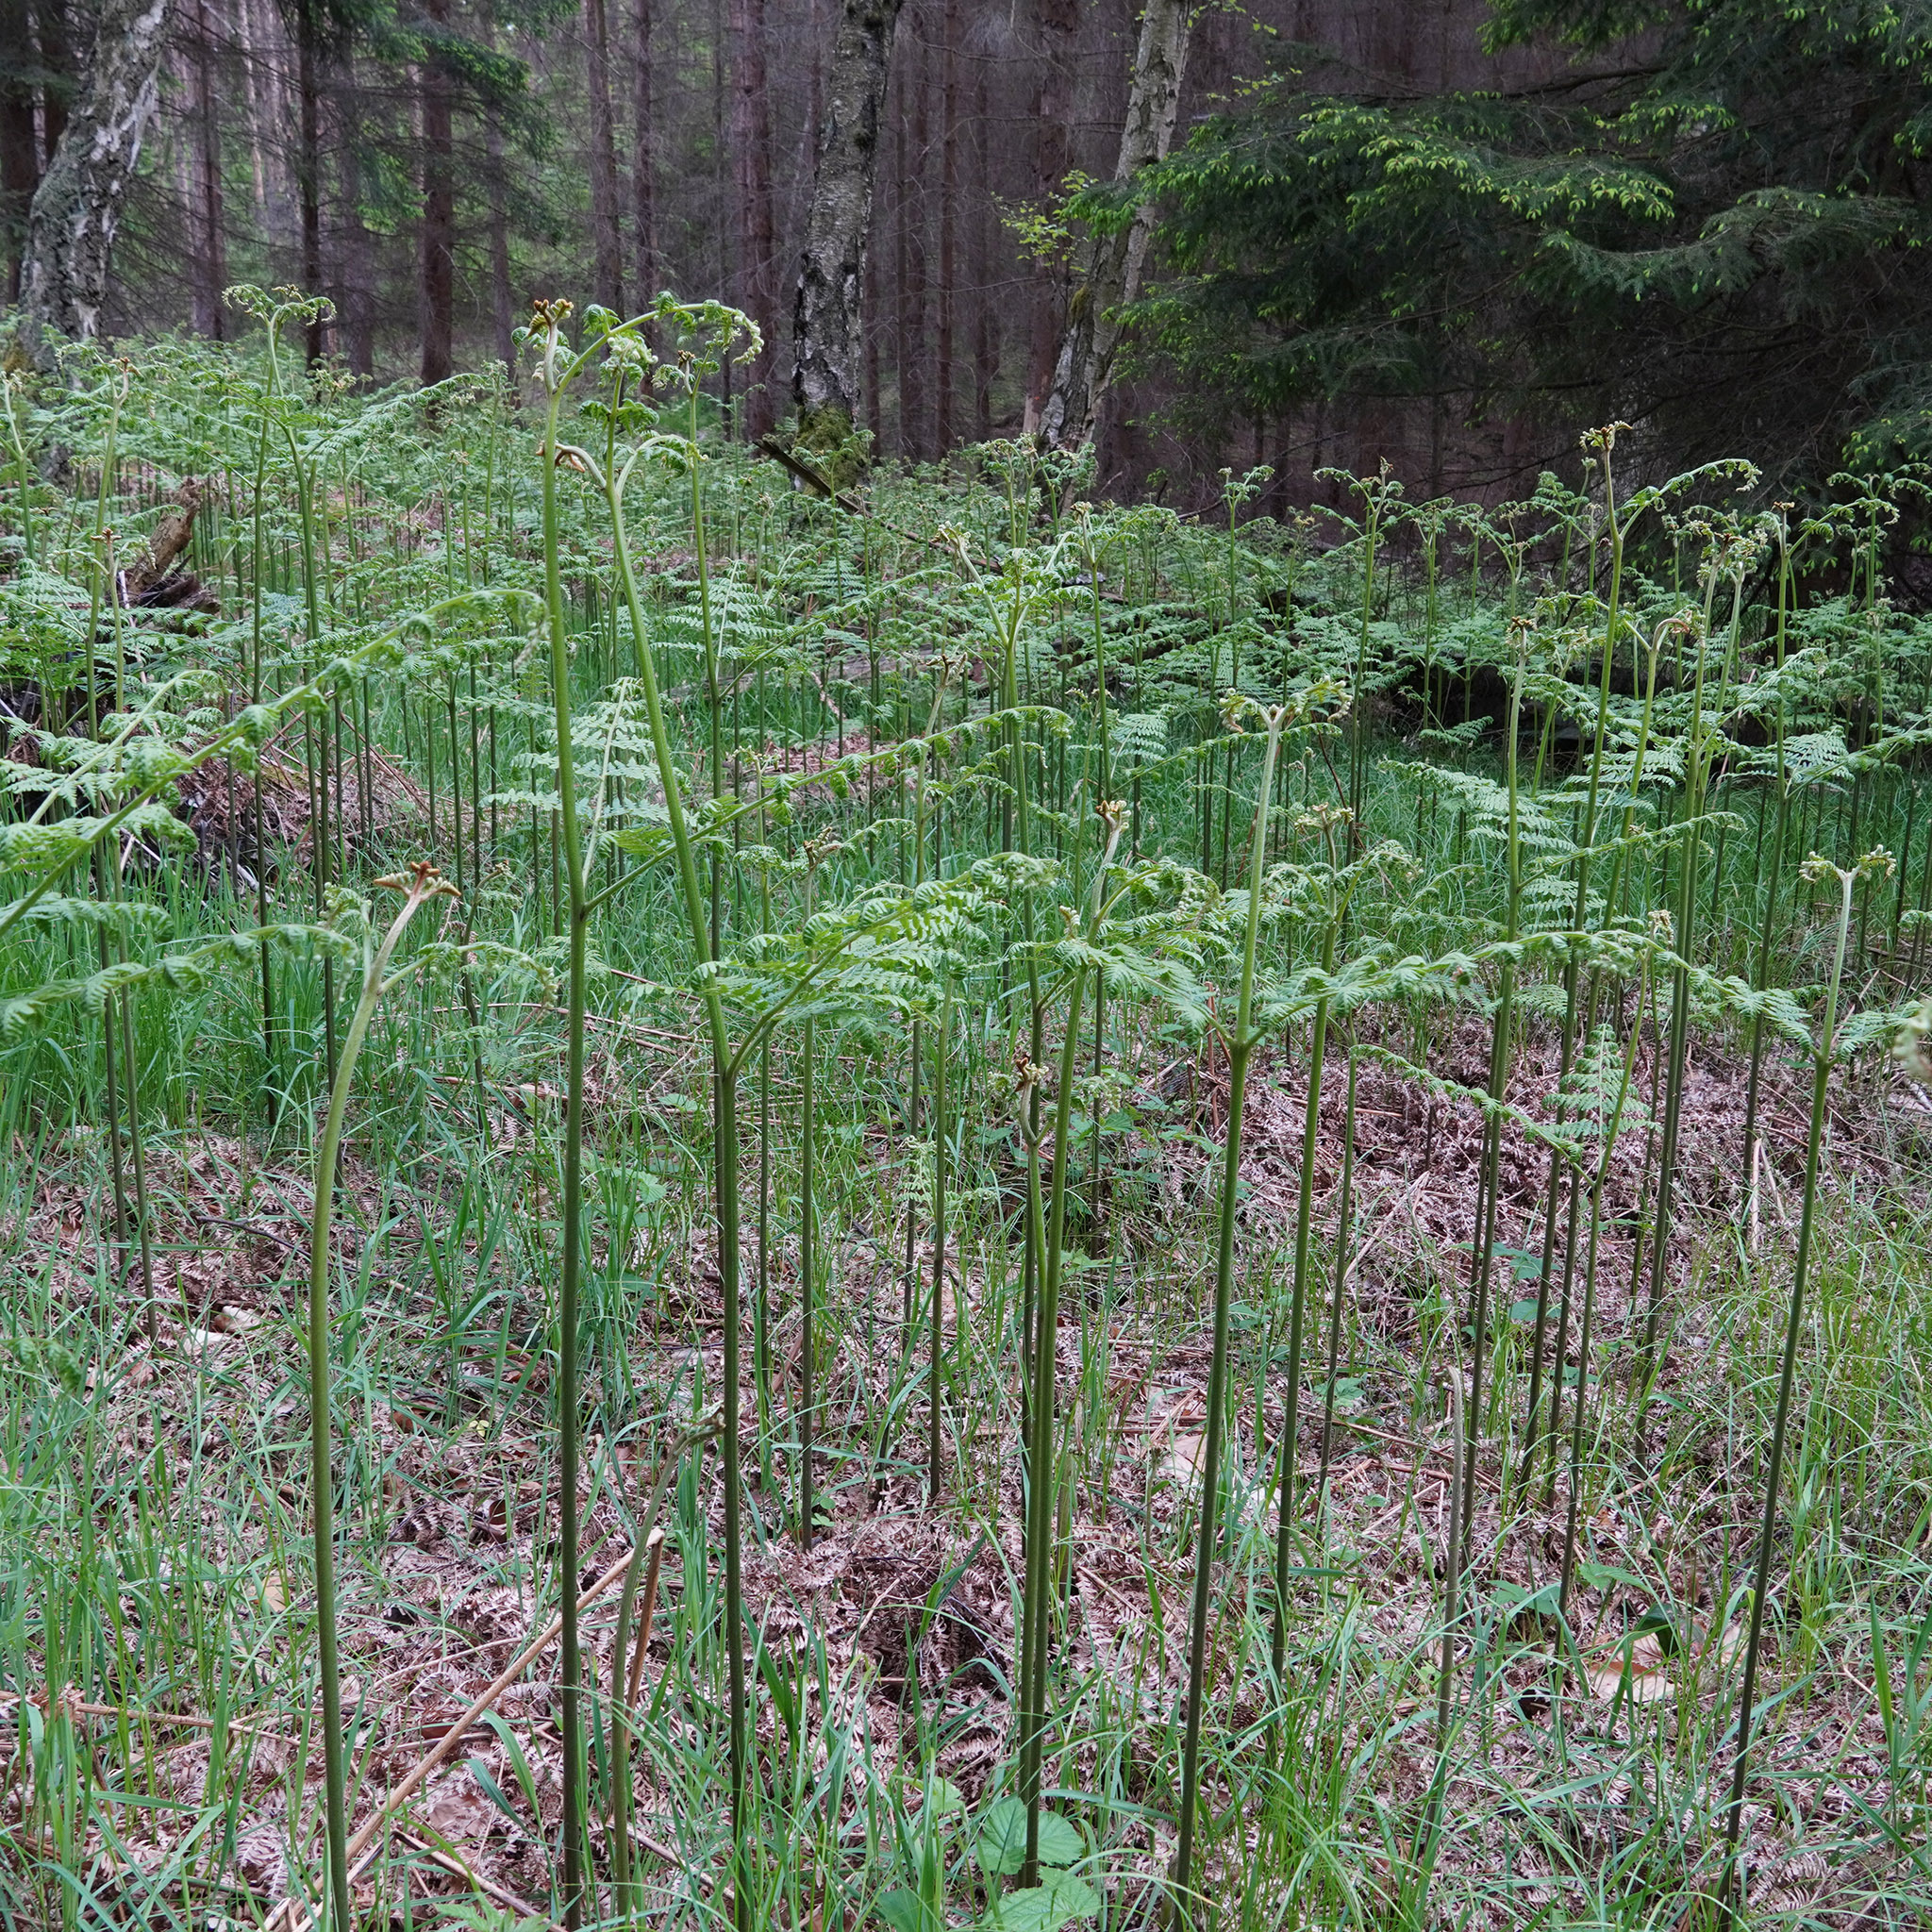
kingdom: Plantae
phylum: Tracheophyta
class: Polypodiopsida
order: Polypodiales
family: Dennstaedtiaceae
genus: Pteridium
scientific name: Pteridium aquilinum
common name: Bracken
